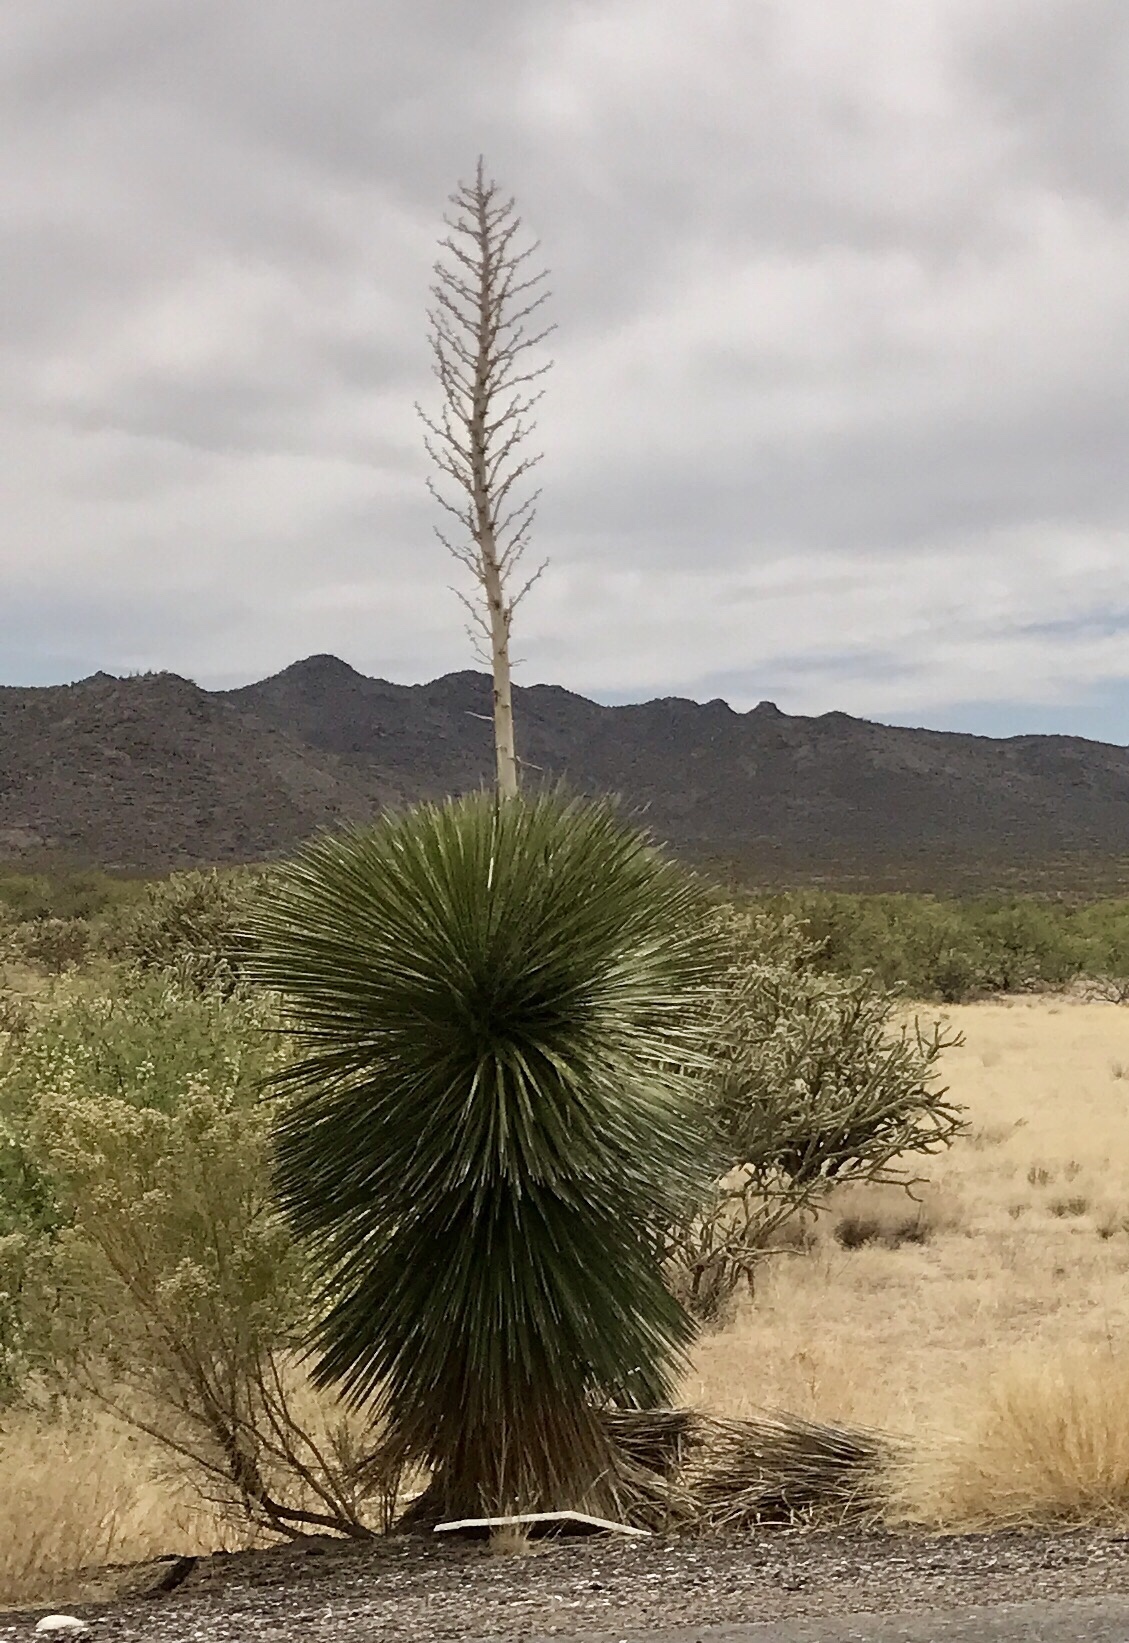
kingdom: Plantae
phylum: Tracheophyta
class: Liliopsida
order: Asparagales
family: Asparagaceae
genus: Yucca
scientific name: Yucca elata
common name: Palmella
